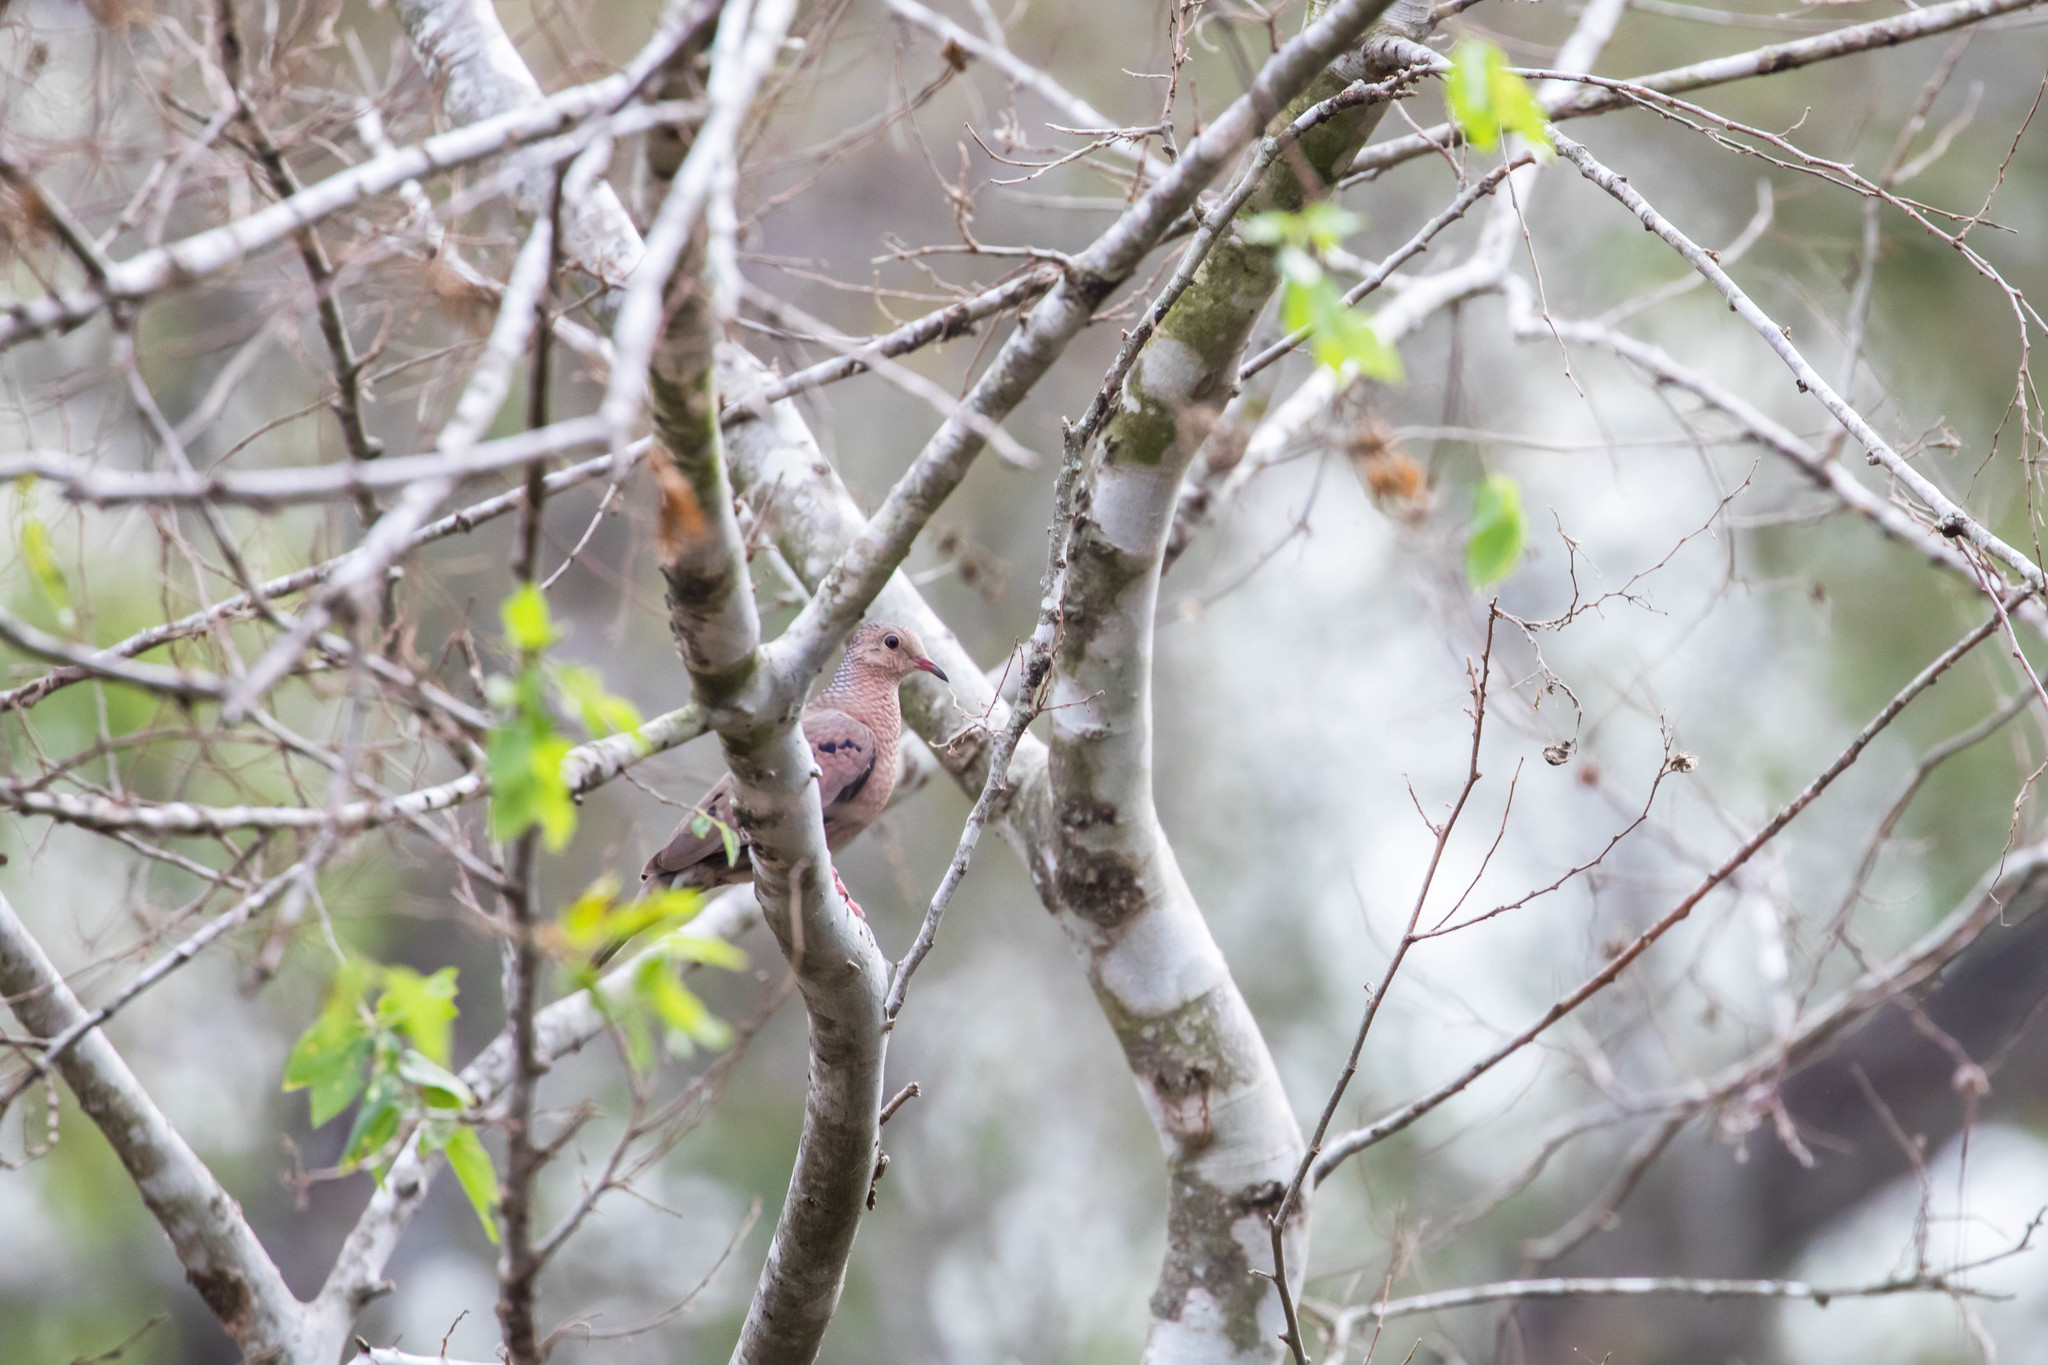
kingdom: Animalia
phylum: Chordata
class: Aves
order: Columbiformes
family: Columbidae
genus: Columbina
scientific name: Columbina passerina
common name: Common ground-dove
